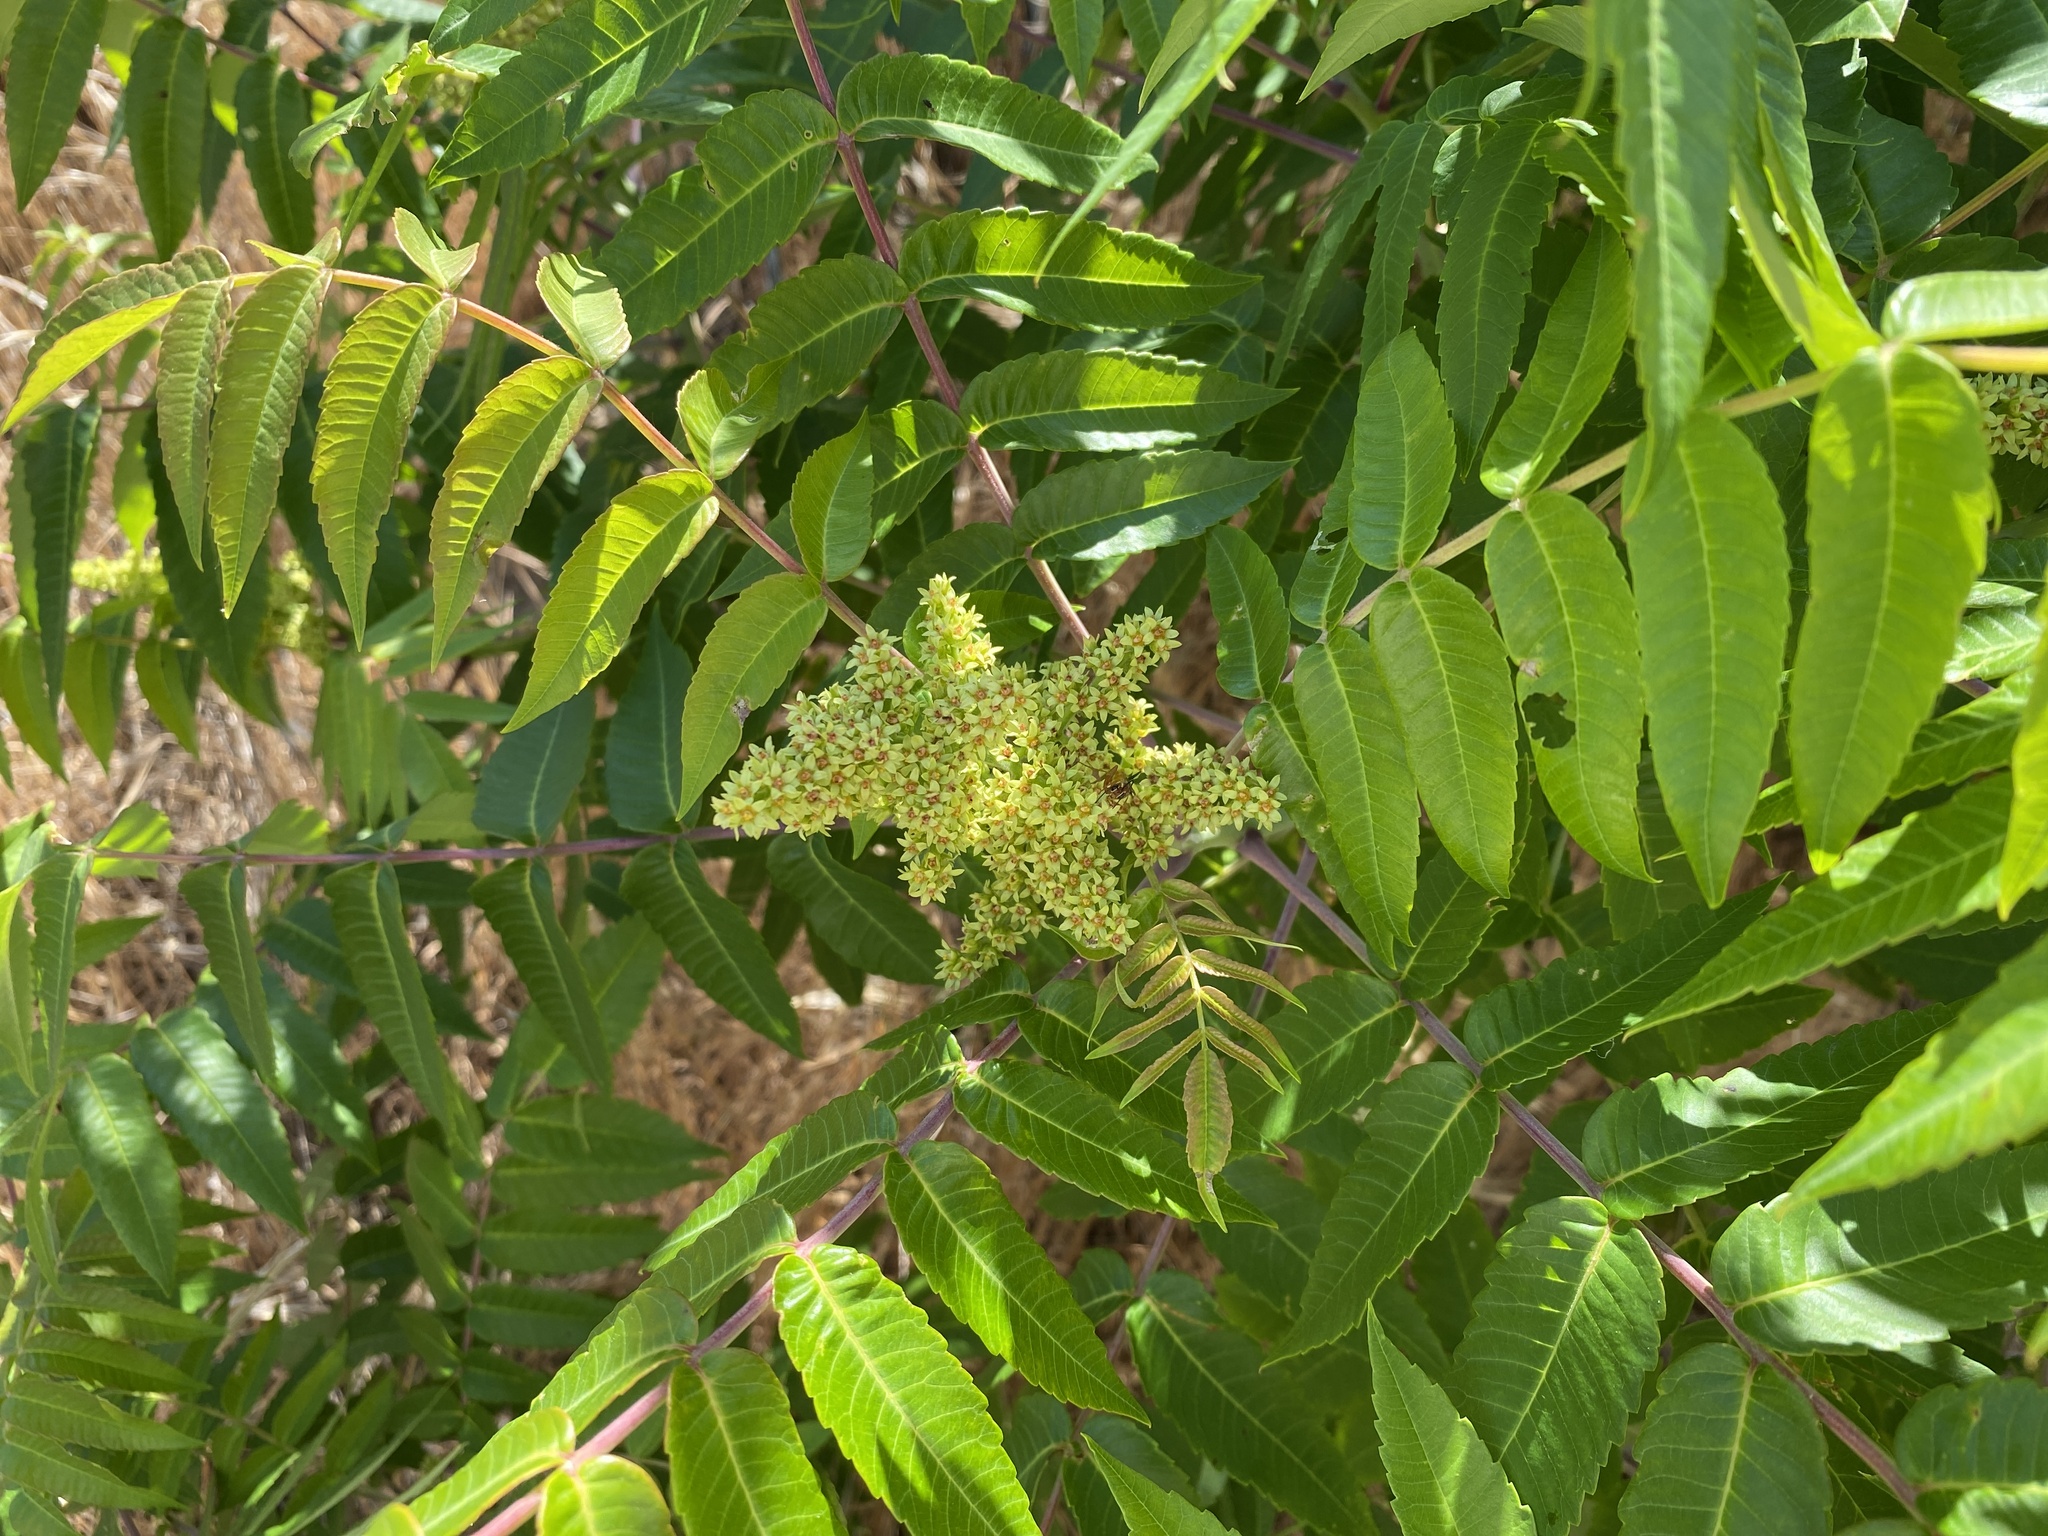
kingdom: Plantae
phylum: Tracheophyta
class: Magnoliopsida
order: Sapindales
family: Anacardiaceae
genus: Rhus
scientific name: Rhus glabra
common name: Scarlet sumac
